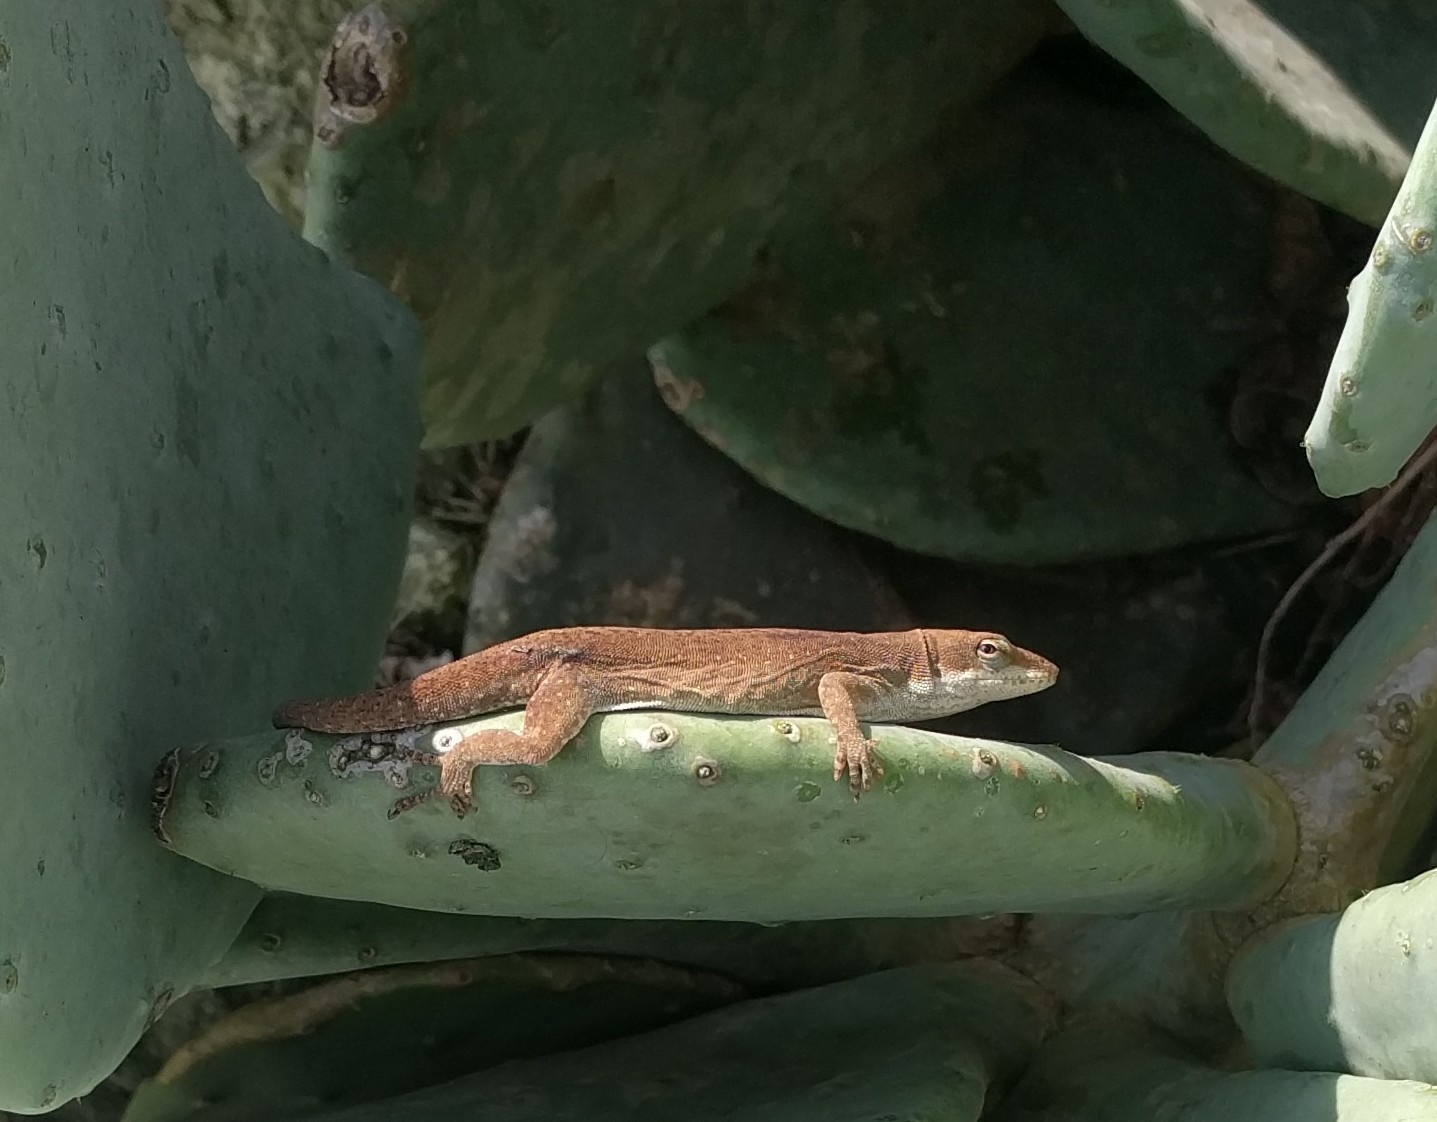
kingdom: Animalia
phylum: Chordata
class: Squamata
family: Dactyloidae
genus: Anolis
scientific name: Anolis carolinensis
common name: Green anole
